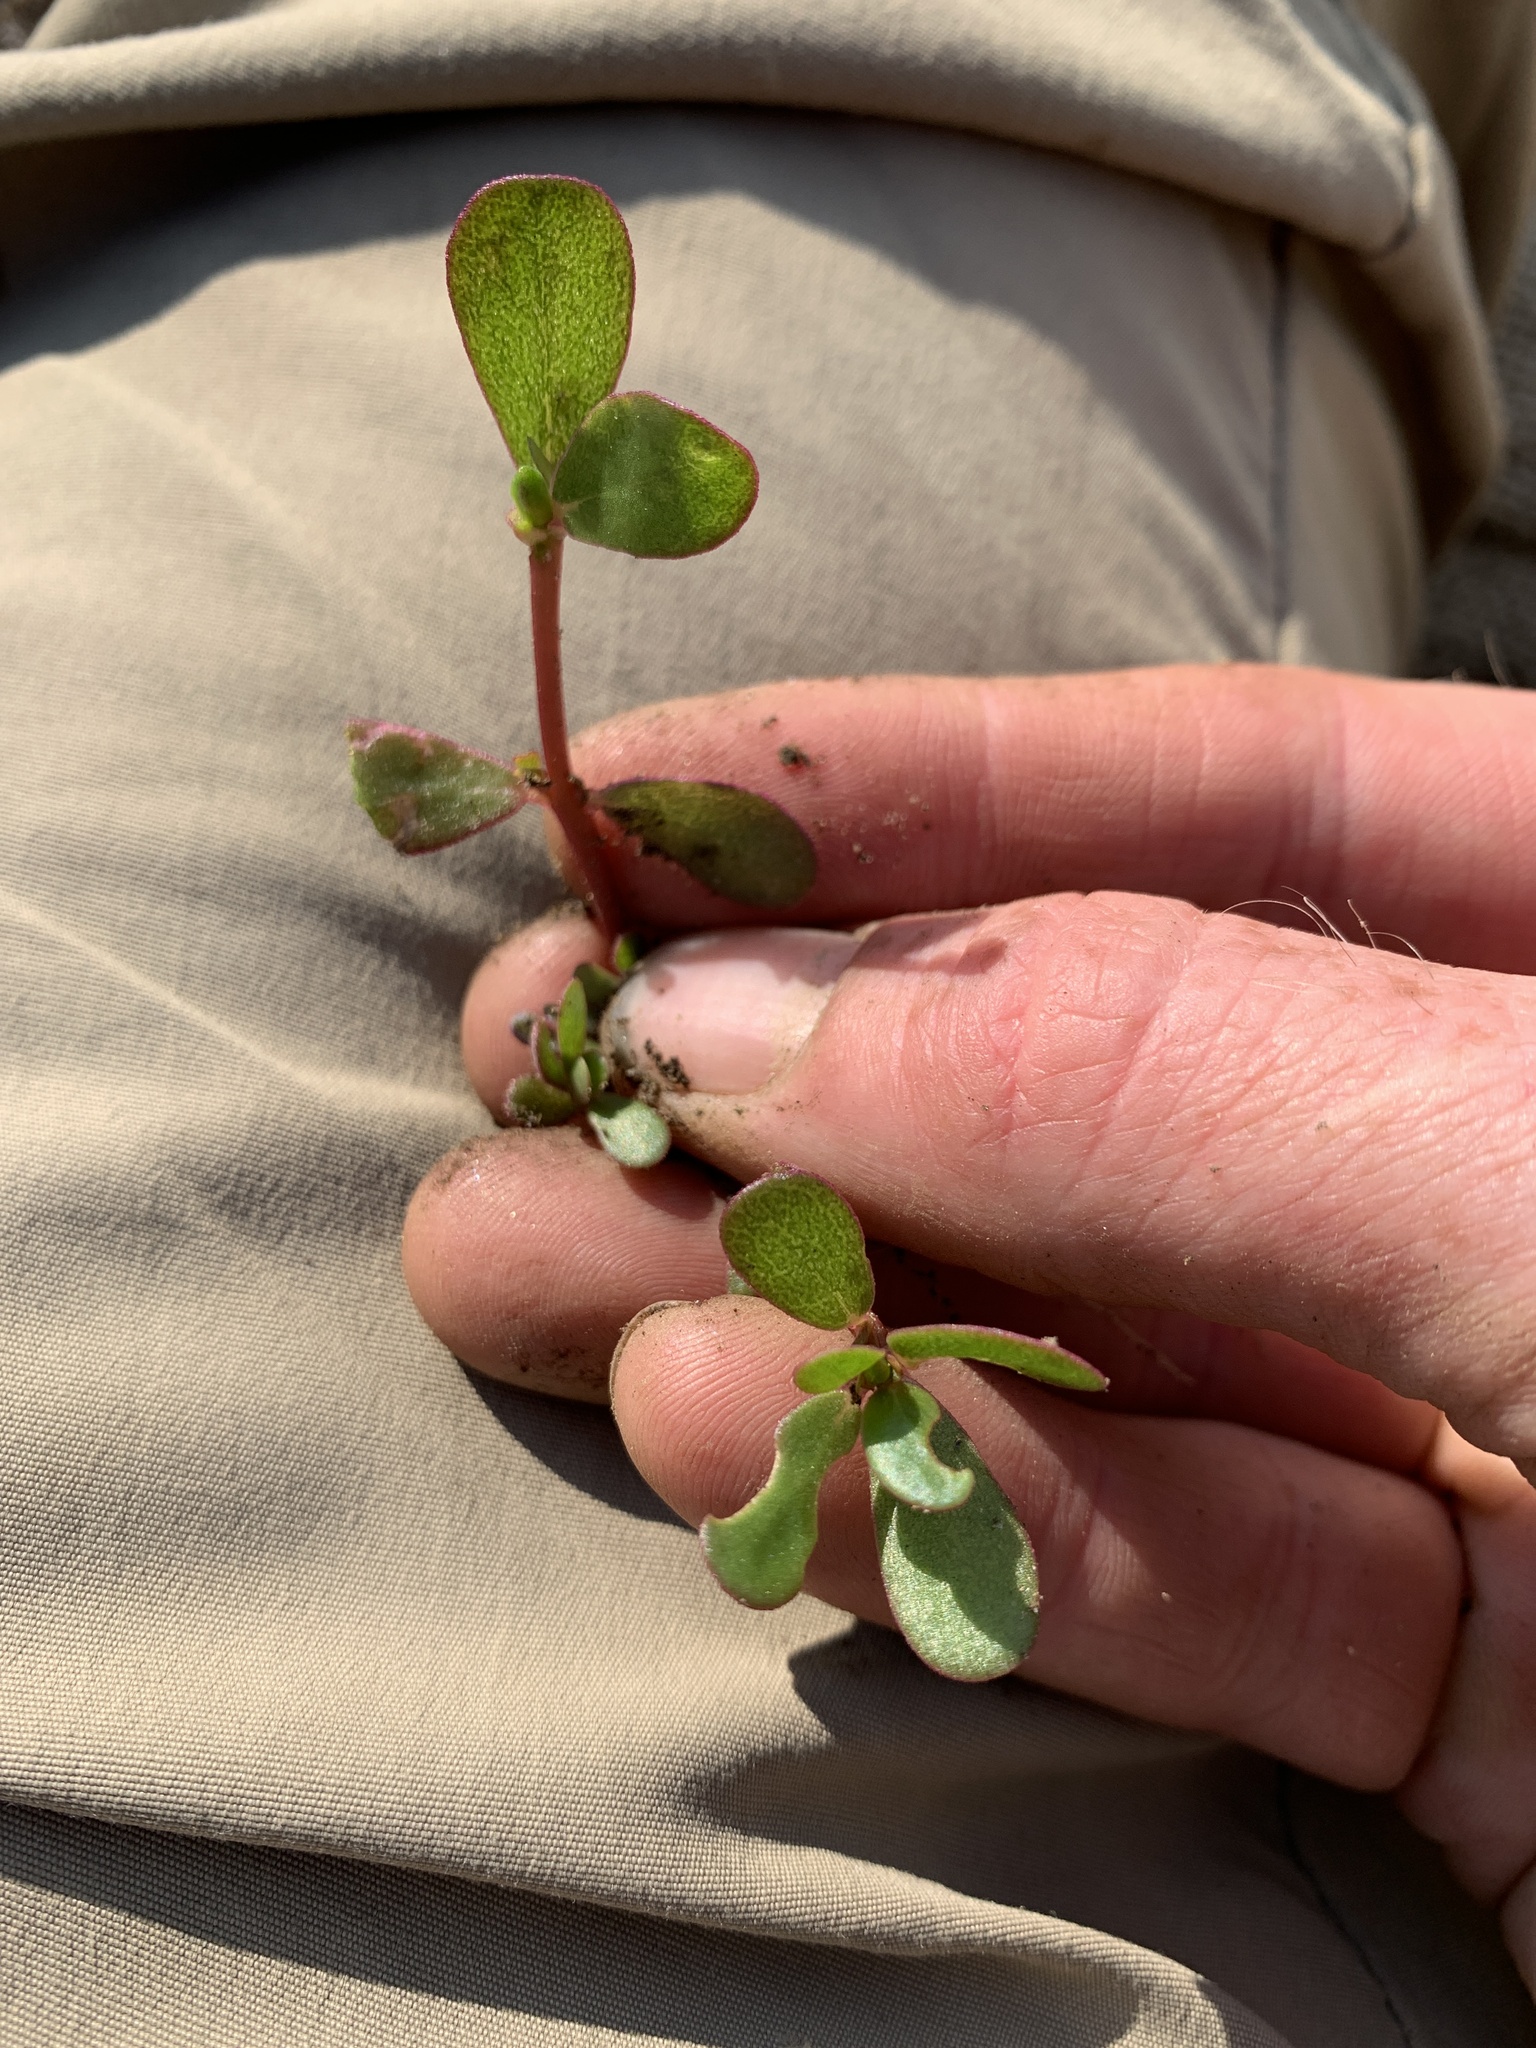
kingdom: Plantae
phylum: Tracheophyta
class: Magnoliopsida
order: Caryophyllales
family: Portulacaceae
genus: Portulaca
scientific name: Portulaca oleracea
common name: Common purslane
